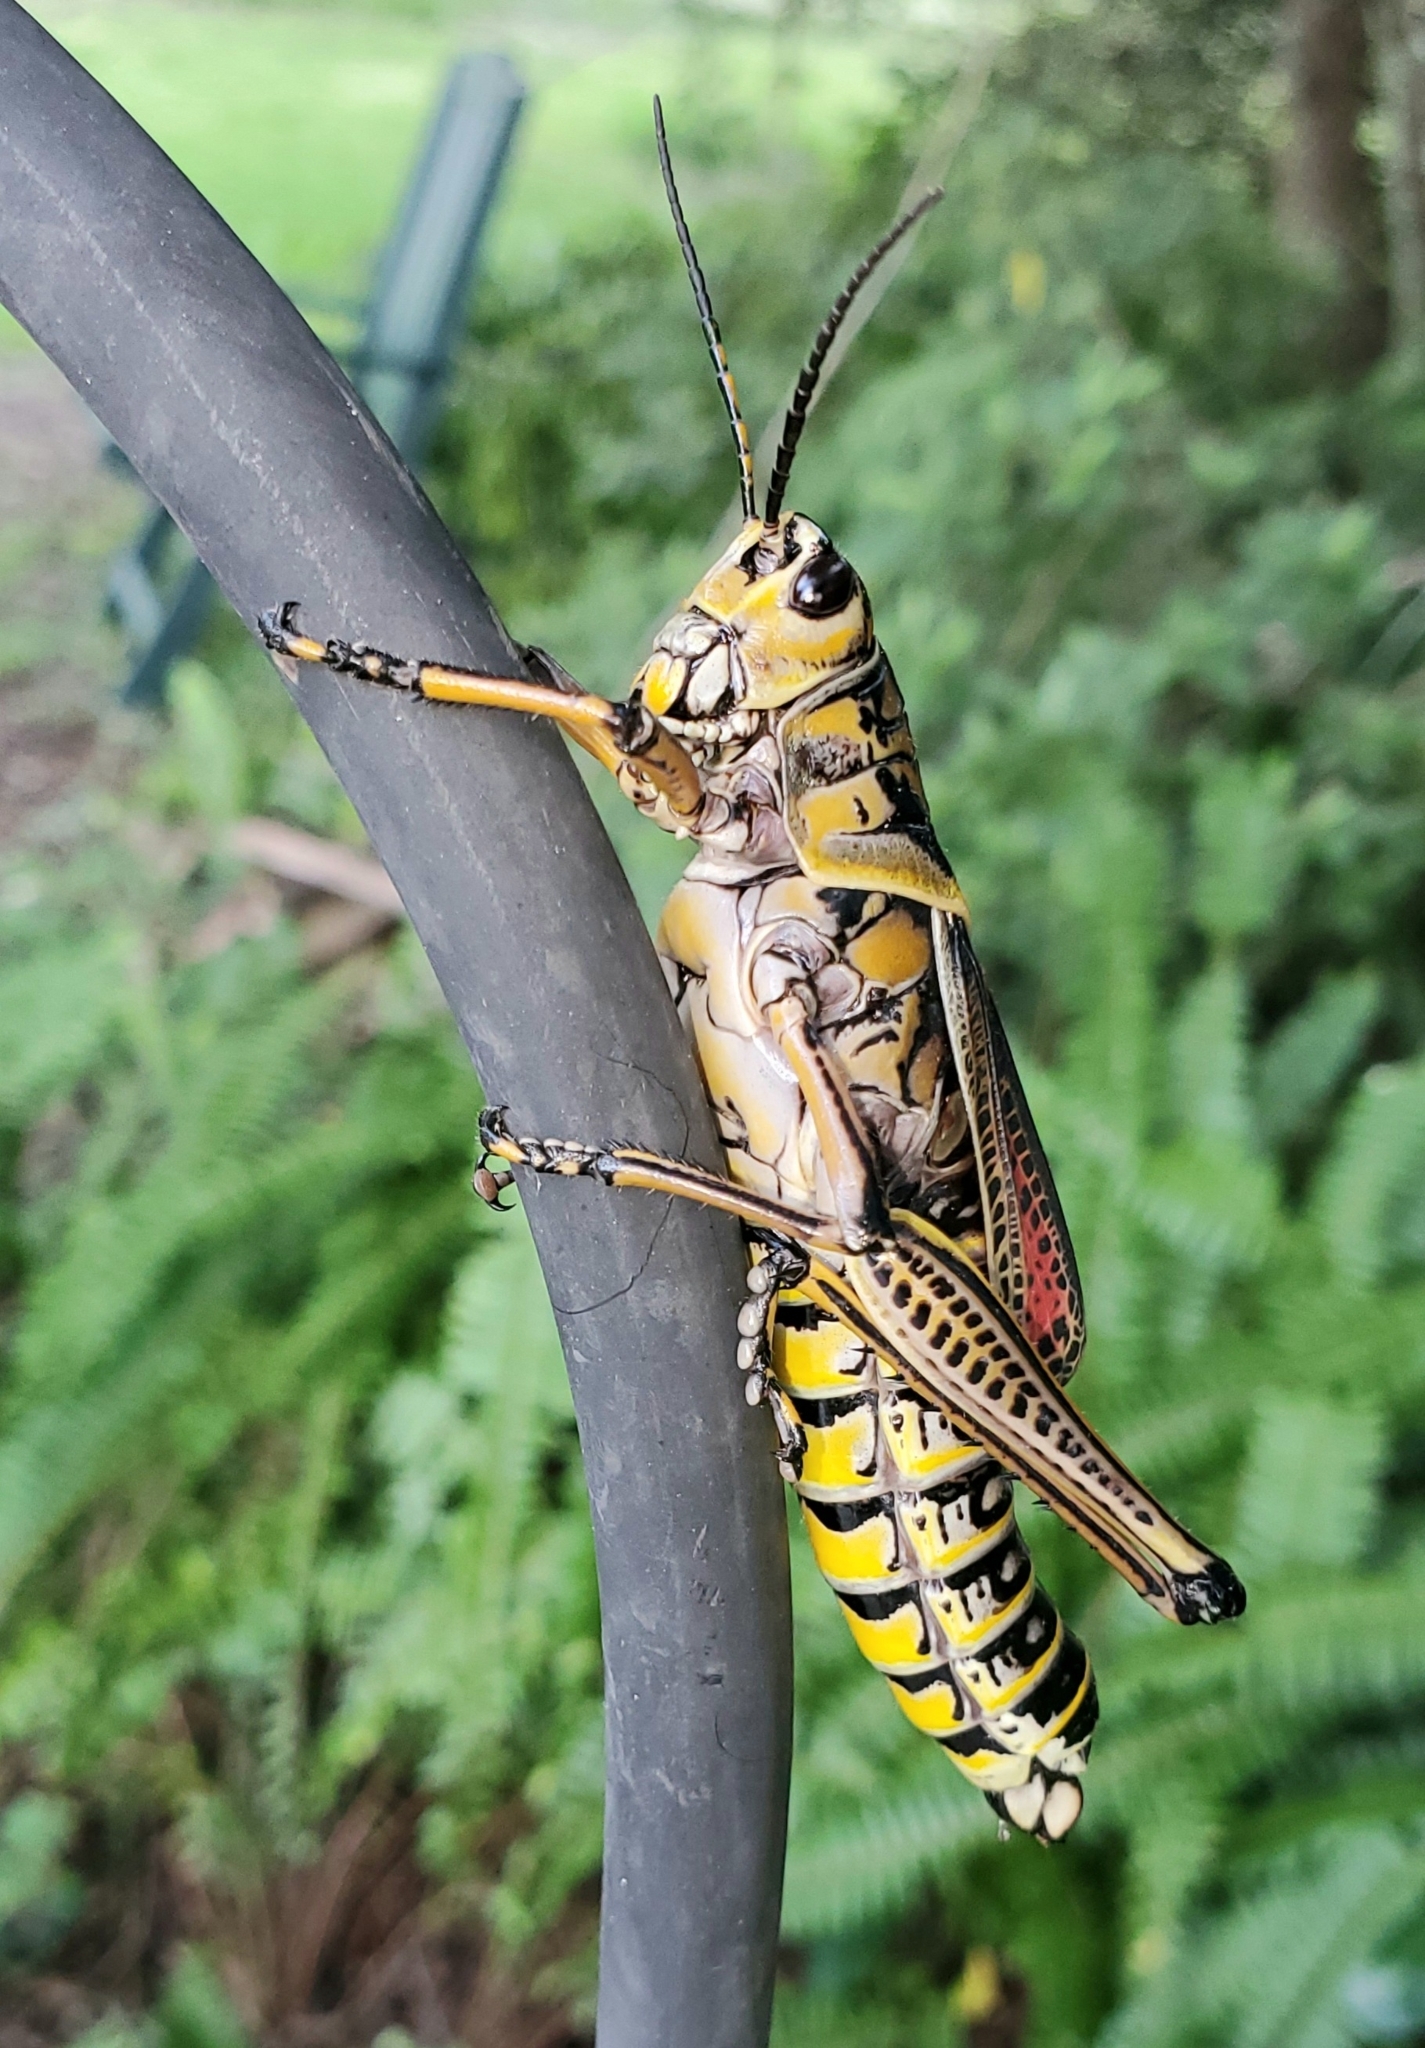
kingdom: Animalia
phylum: Arthropoda
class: Insecta
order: Orthoptera
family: Romaleidae
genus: Romalea
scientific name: Romalea microptera
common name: Eastern lubber grasshopper
